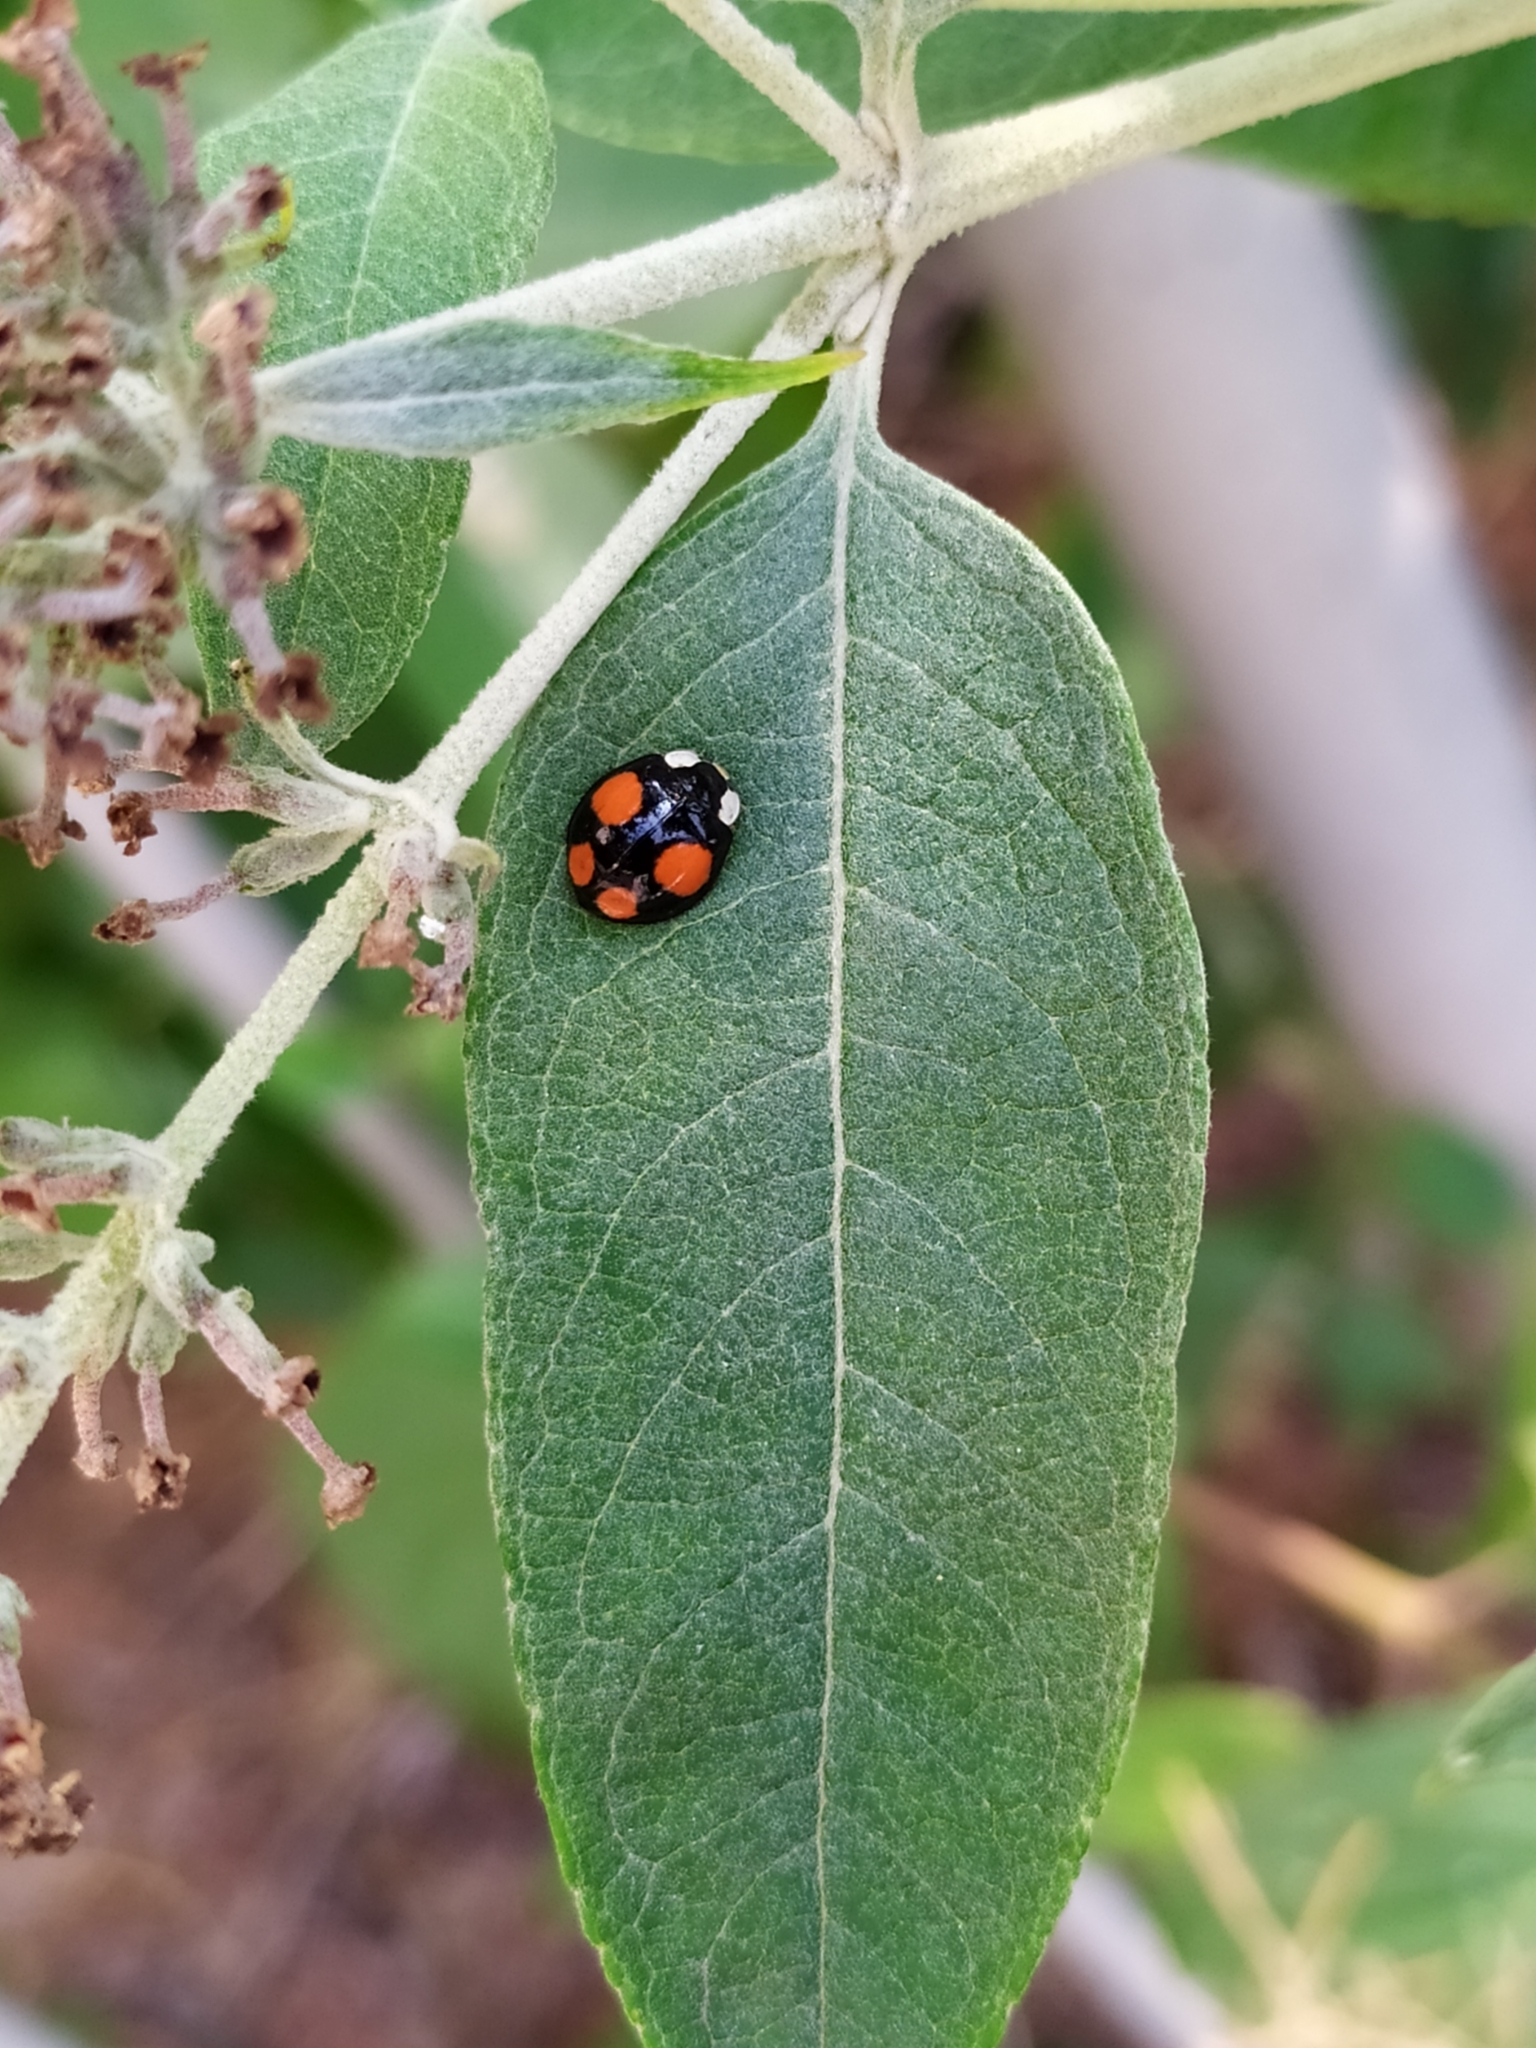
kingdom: Animalia
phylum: Arthropoda
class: Insecta
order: Coleoptera
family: Coccinellidae
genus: Harmonia
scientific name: Harmonia axyridis
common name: Harlequin ladybird
